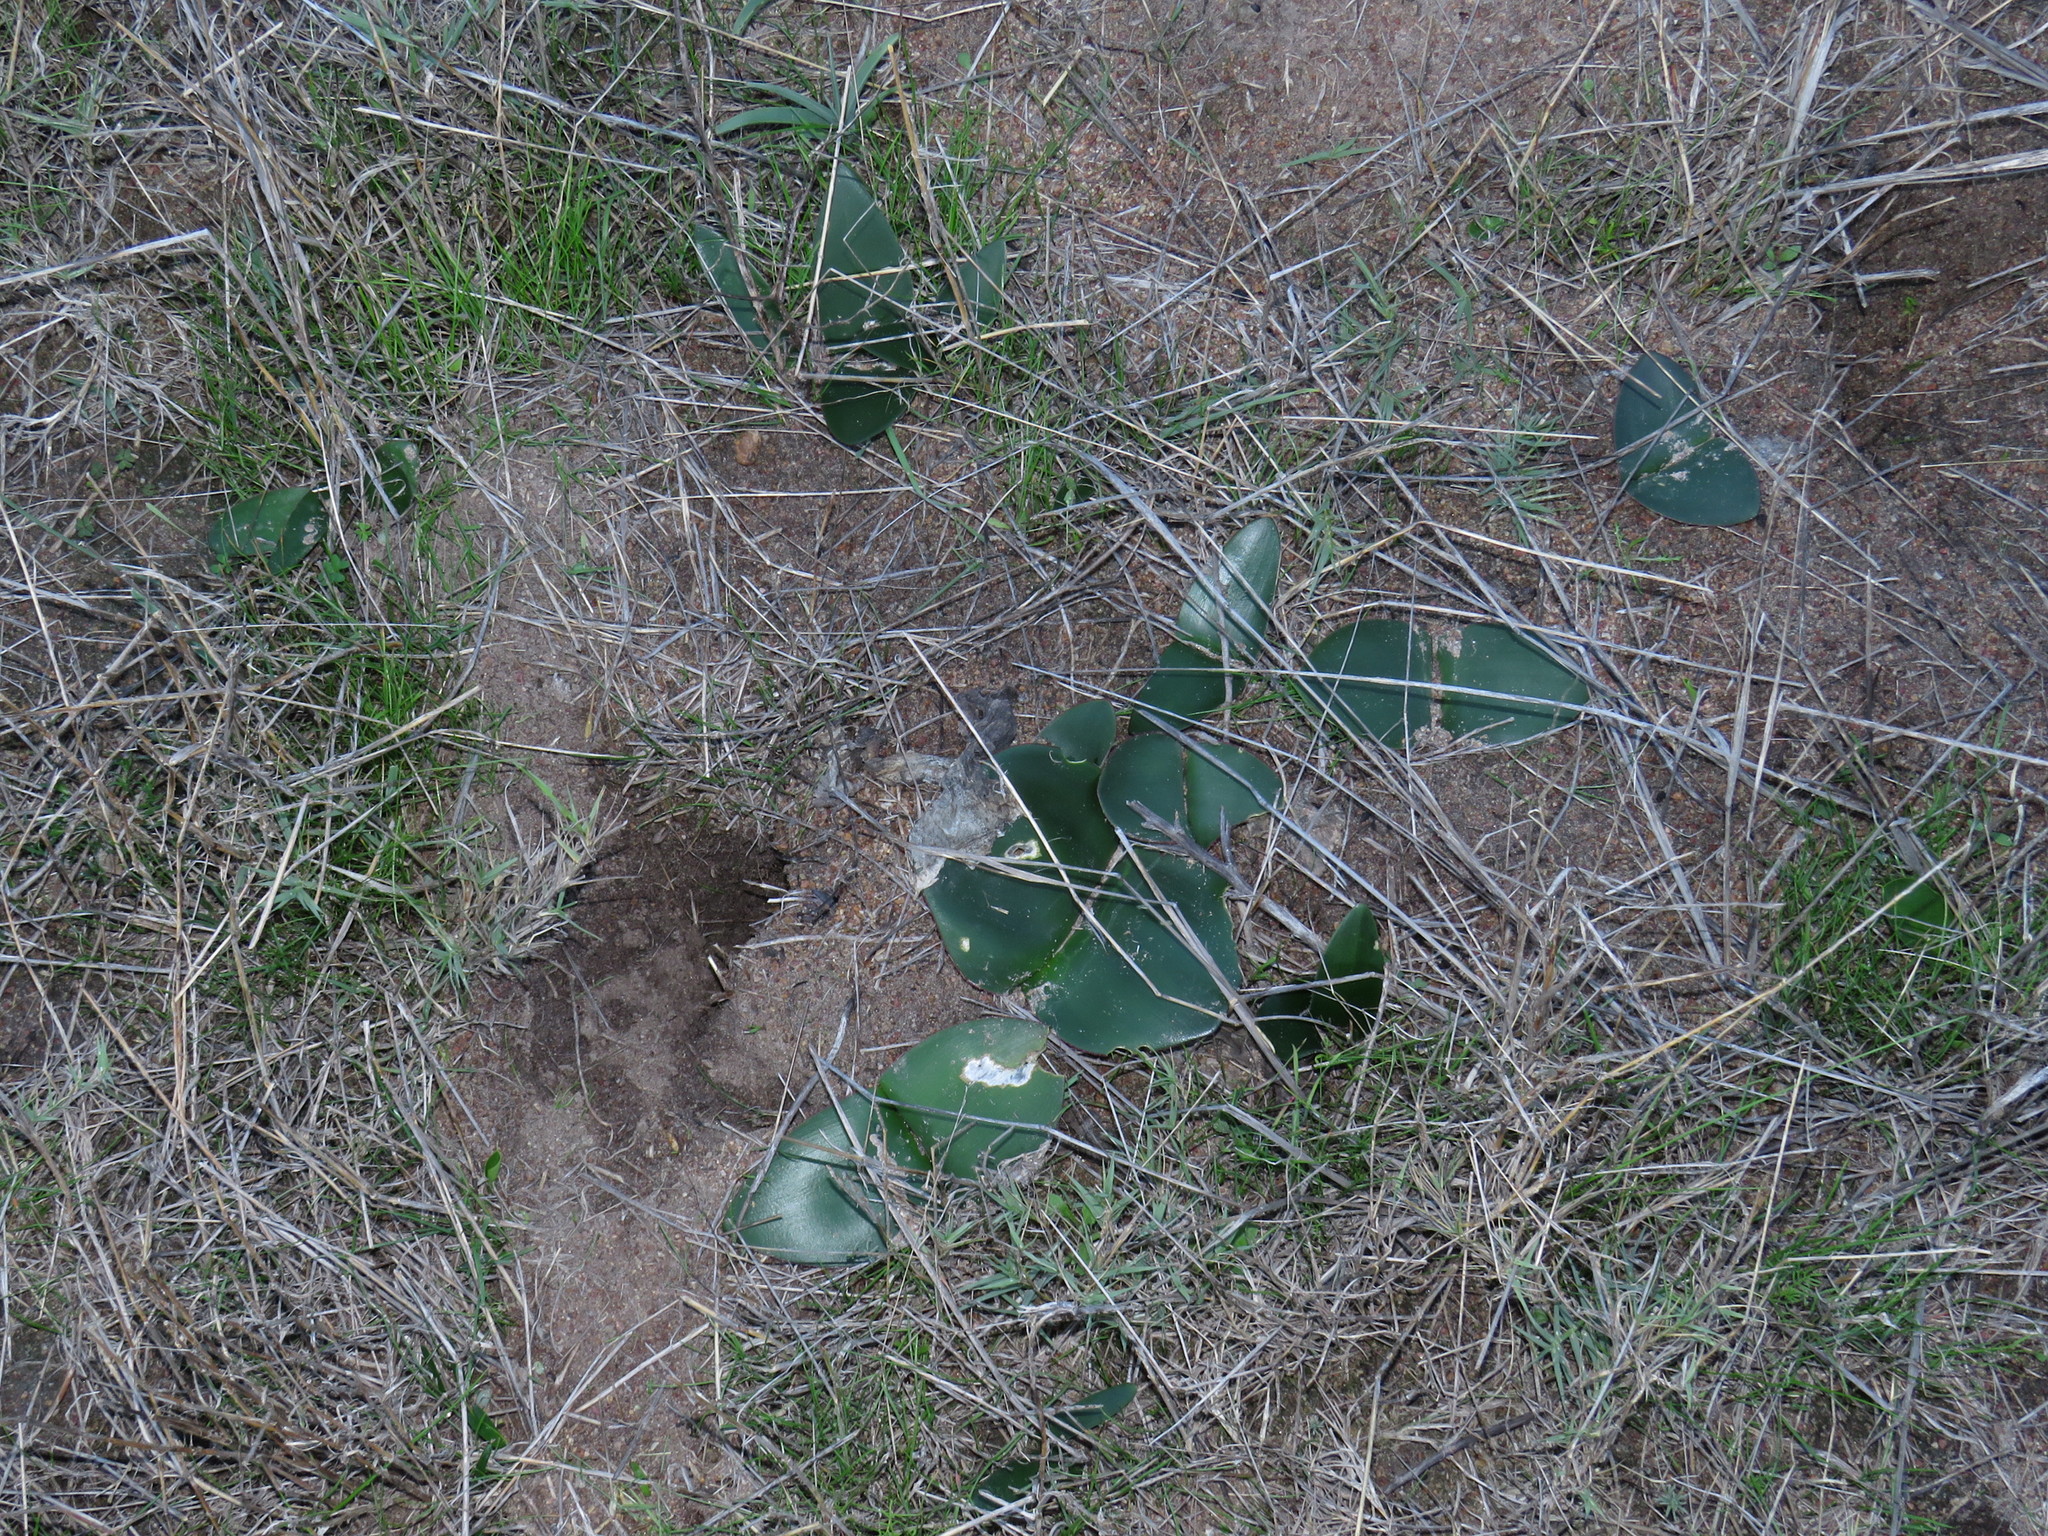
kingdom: Plantae
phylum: Tracheophyta
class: Liliopsida
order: Asparagales
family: Amaryllidaceae
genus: Haemanthus
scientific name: Haemanthus sanguineus
